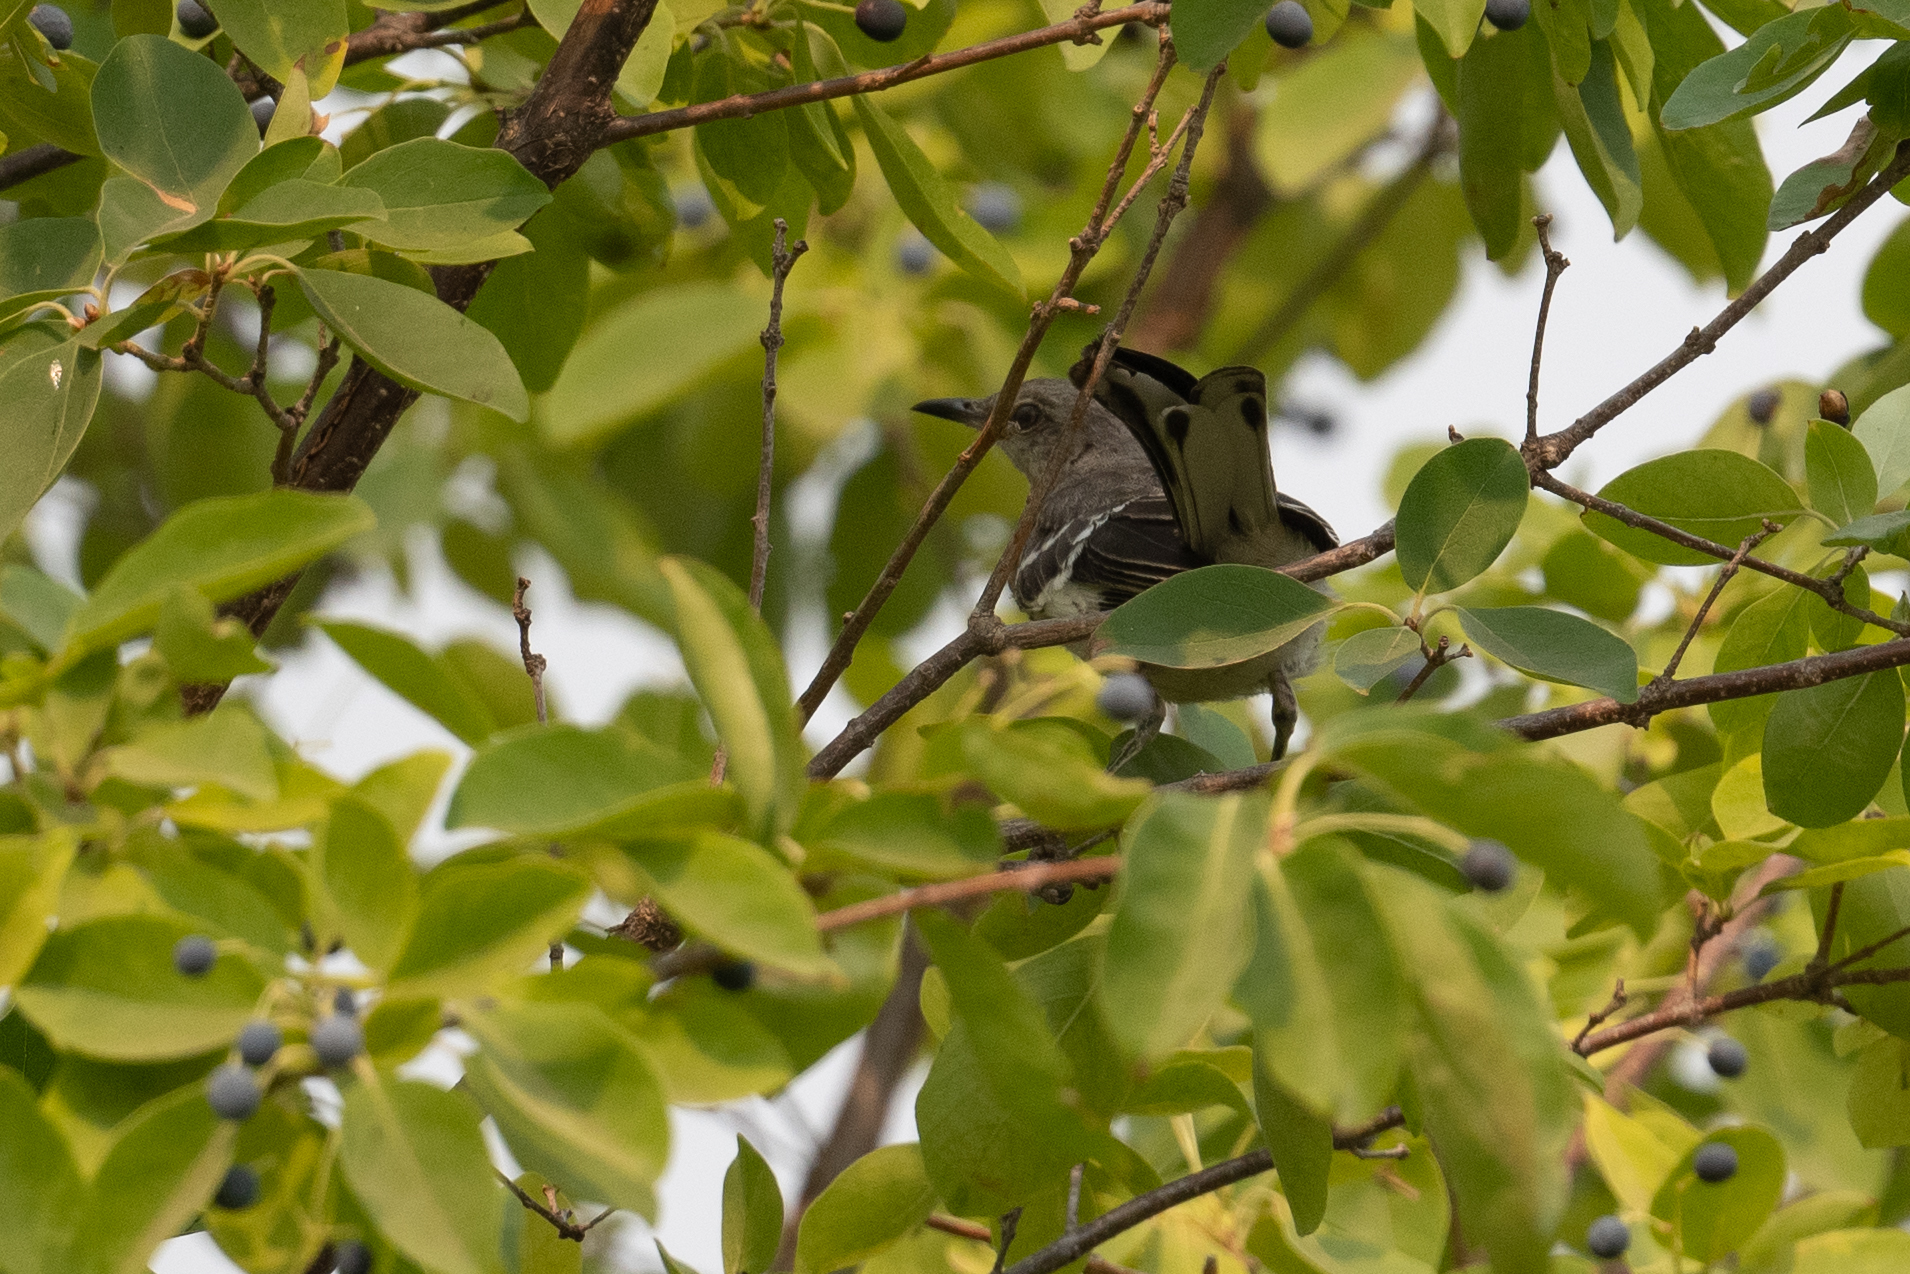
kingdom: Animalia
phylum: Chordata
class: Aves
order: Passeriformes
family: Mimidae
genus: Mimus
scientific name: Mimus polyglottos
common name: Northern mockingbird
